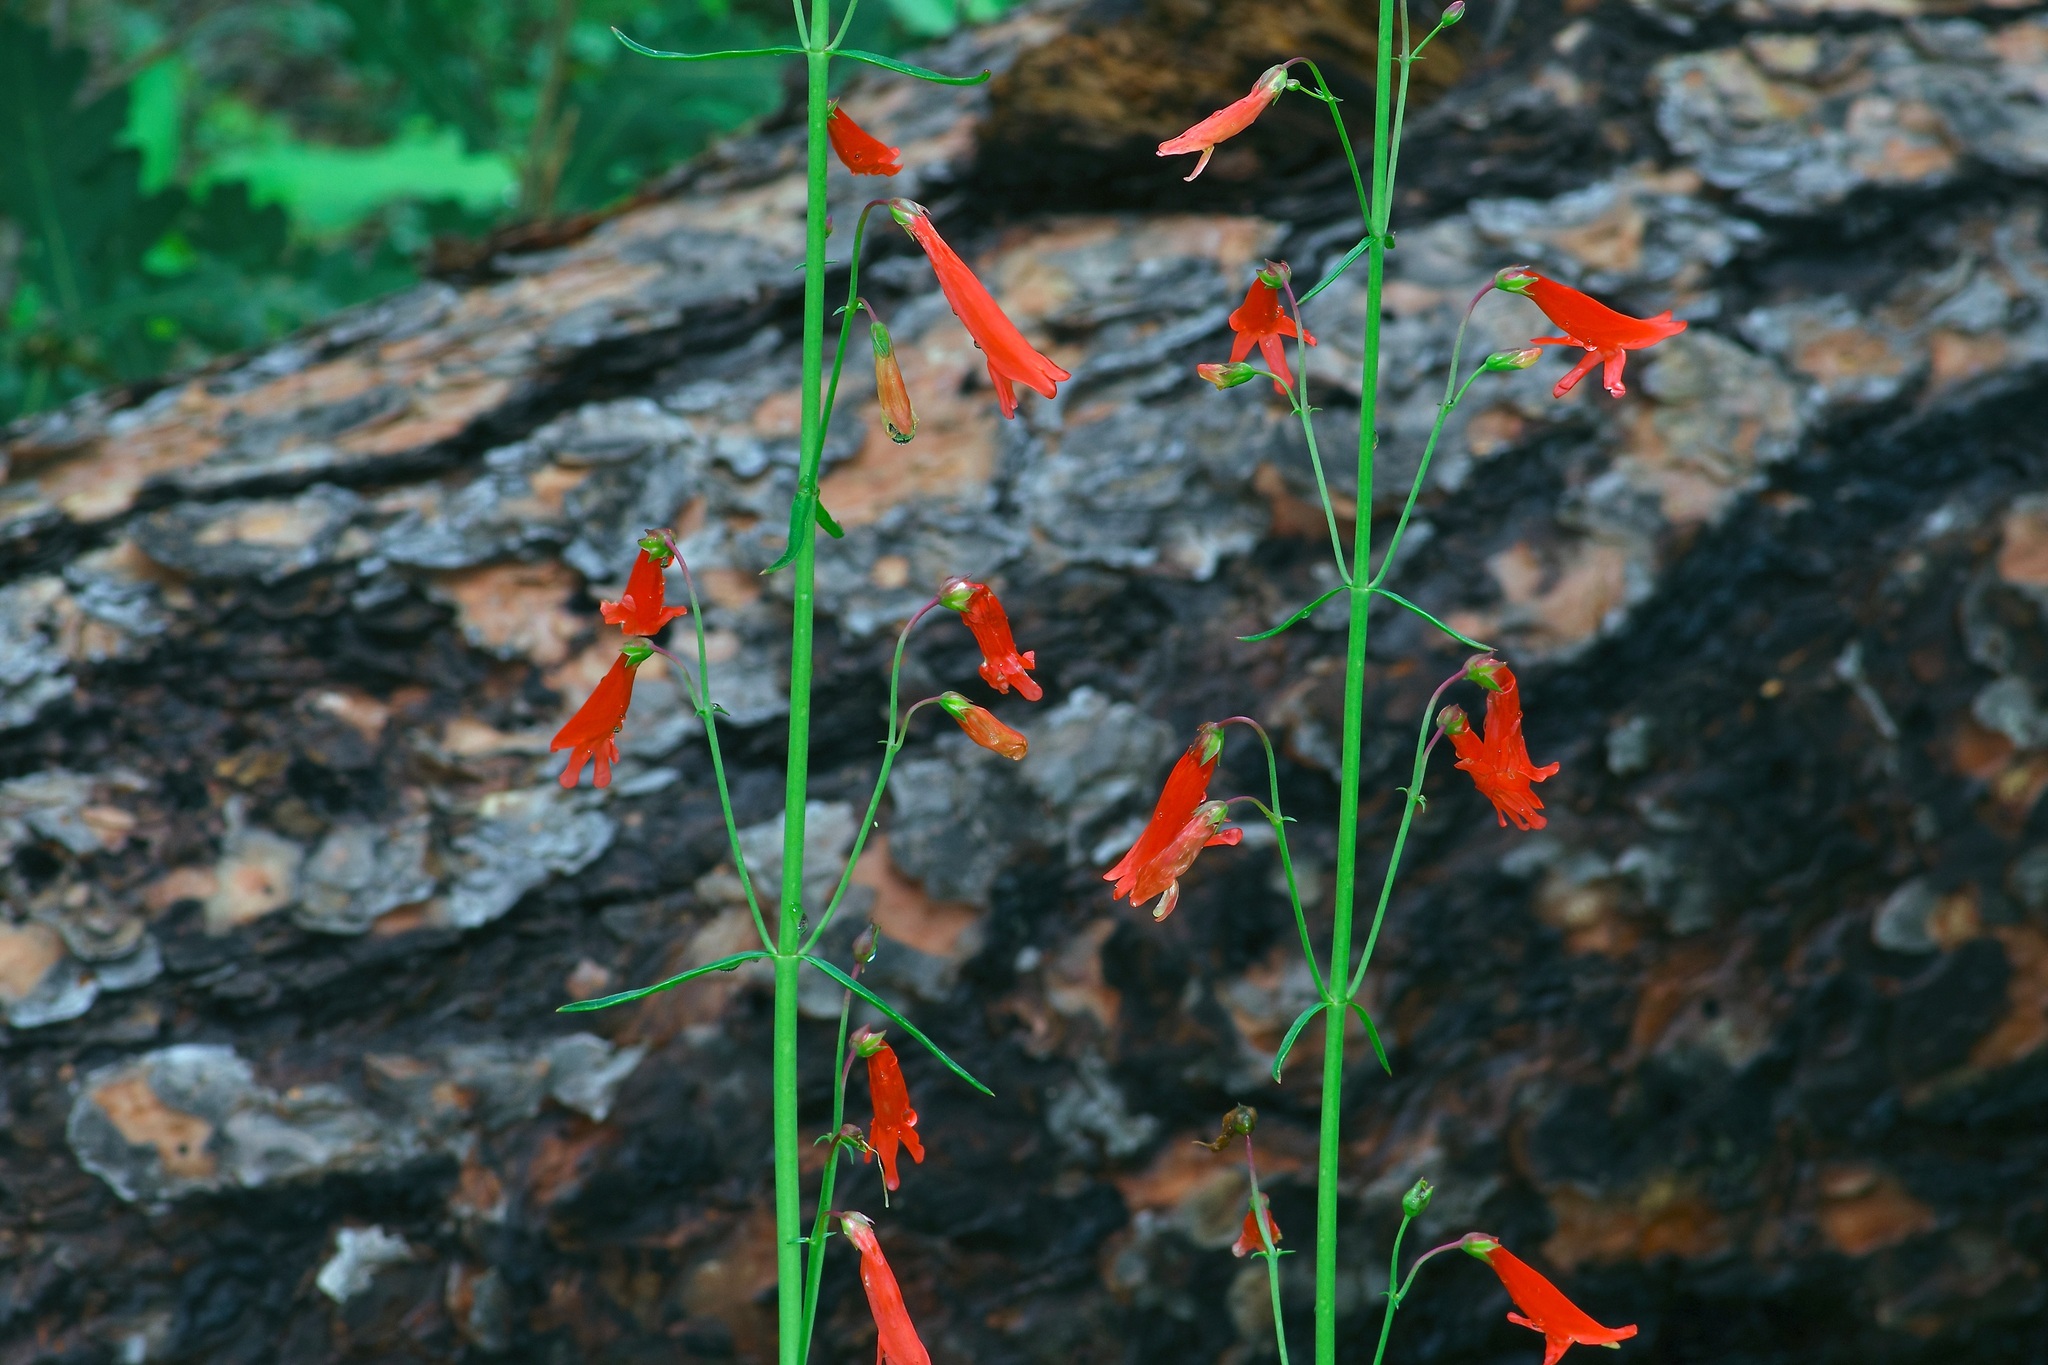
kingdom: Plantae
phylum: Tracheophyta
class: Magnoliopsida
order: Lamiales
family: Plantaginaceae
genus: Penstemon
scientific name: Penstemon barbatus
